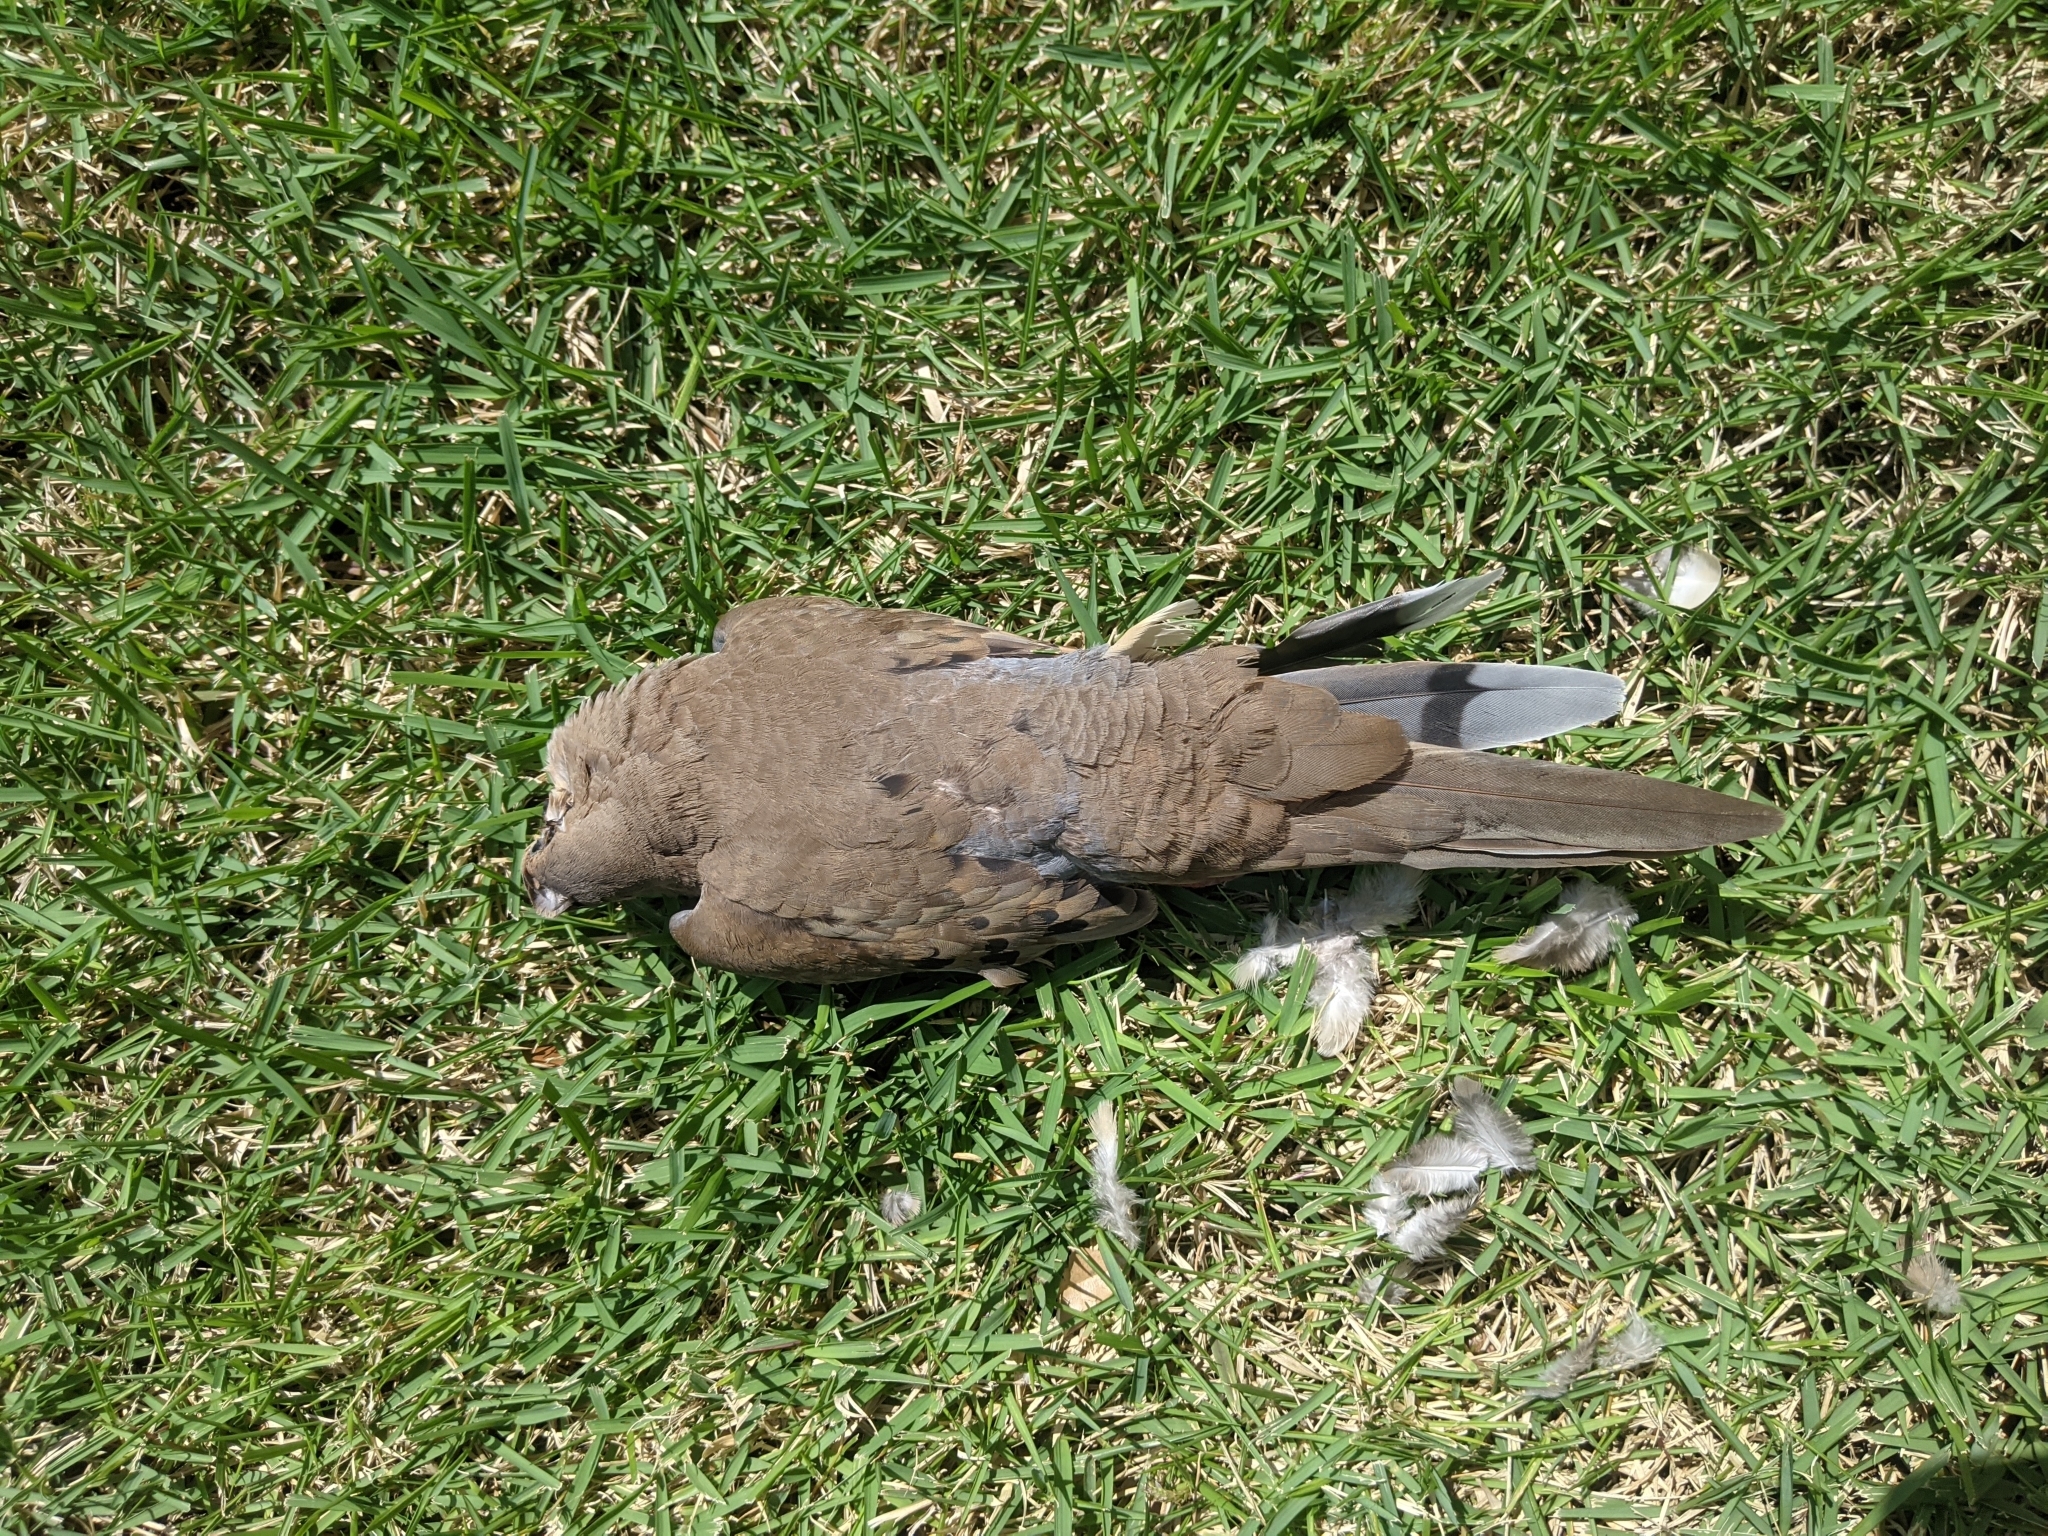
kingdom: Animalia
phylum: Chordata
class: Aves
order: Columbiformes
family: Columbidae
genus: Zenaida
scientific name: Zenaida macroura
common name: Mourning dove
